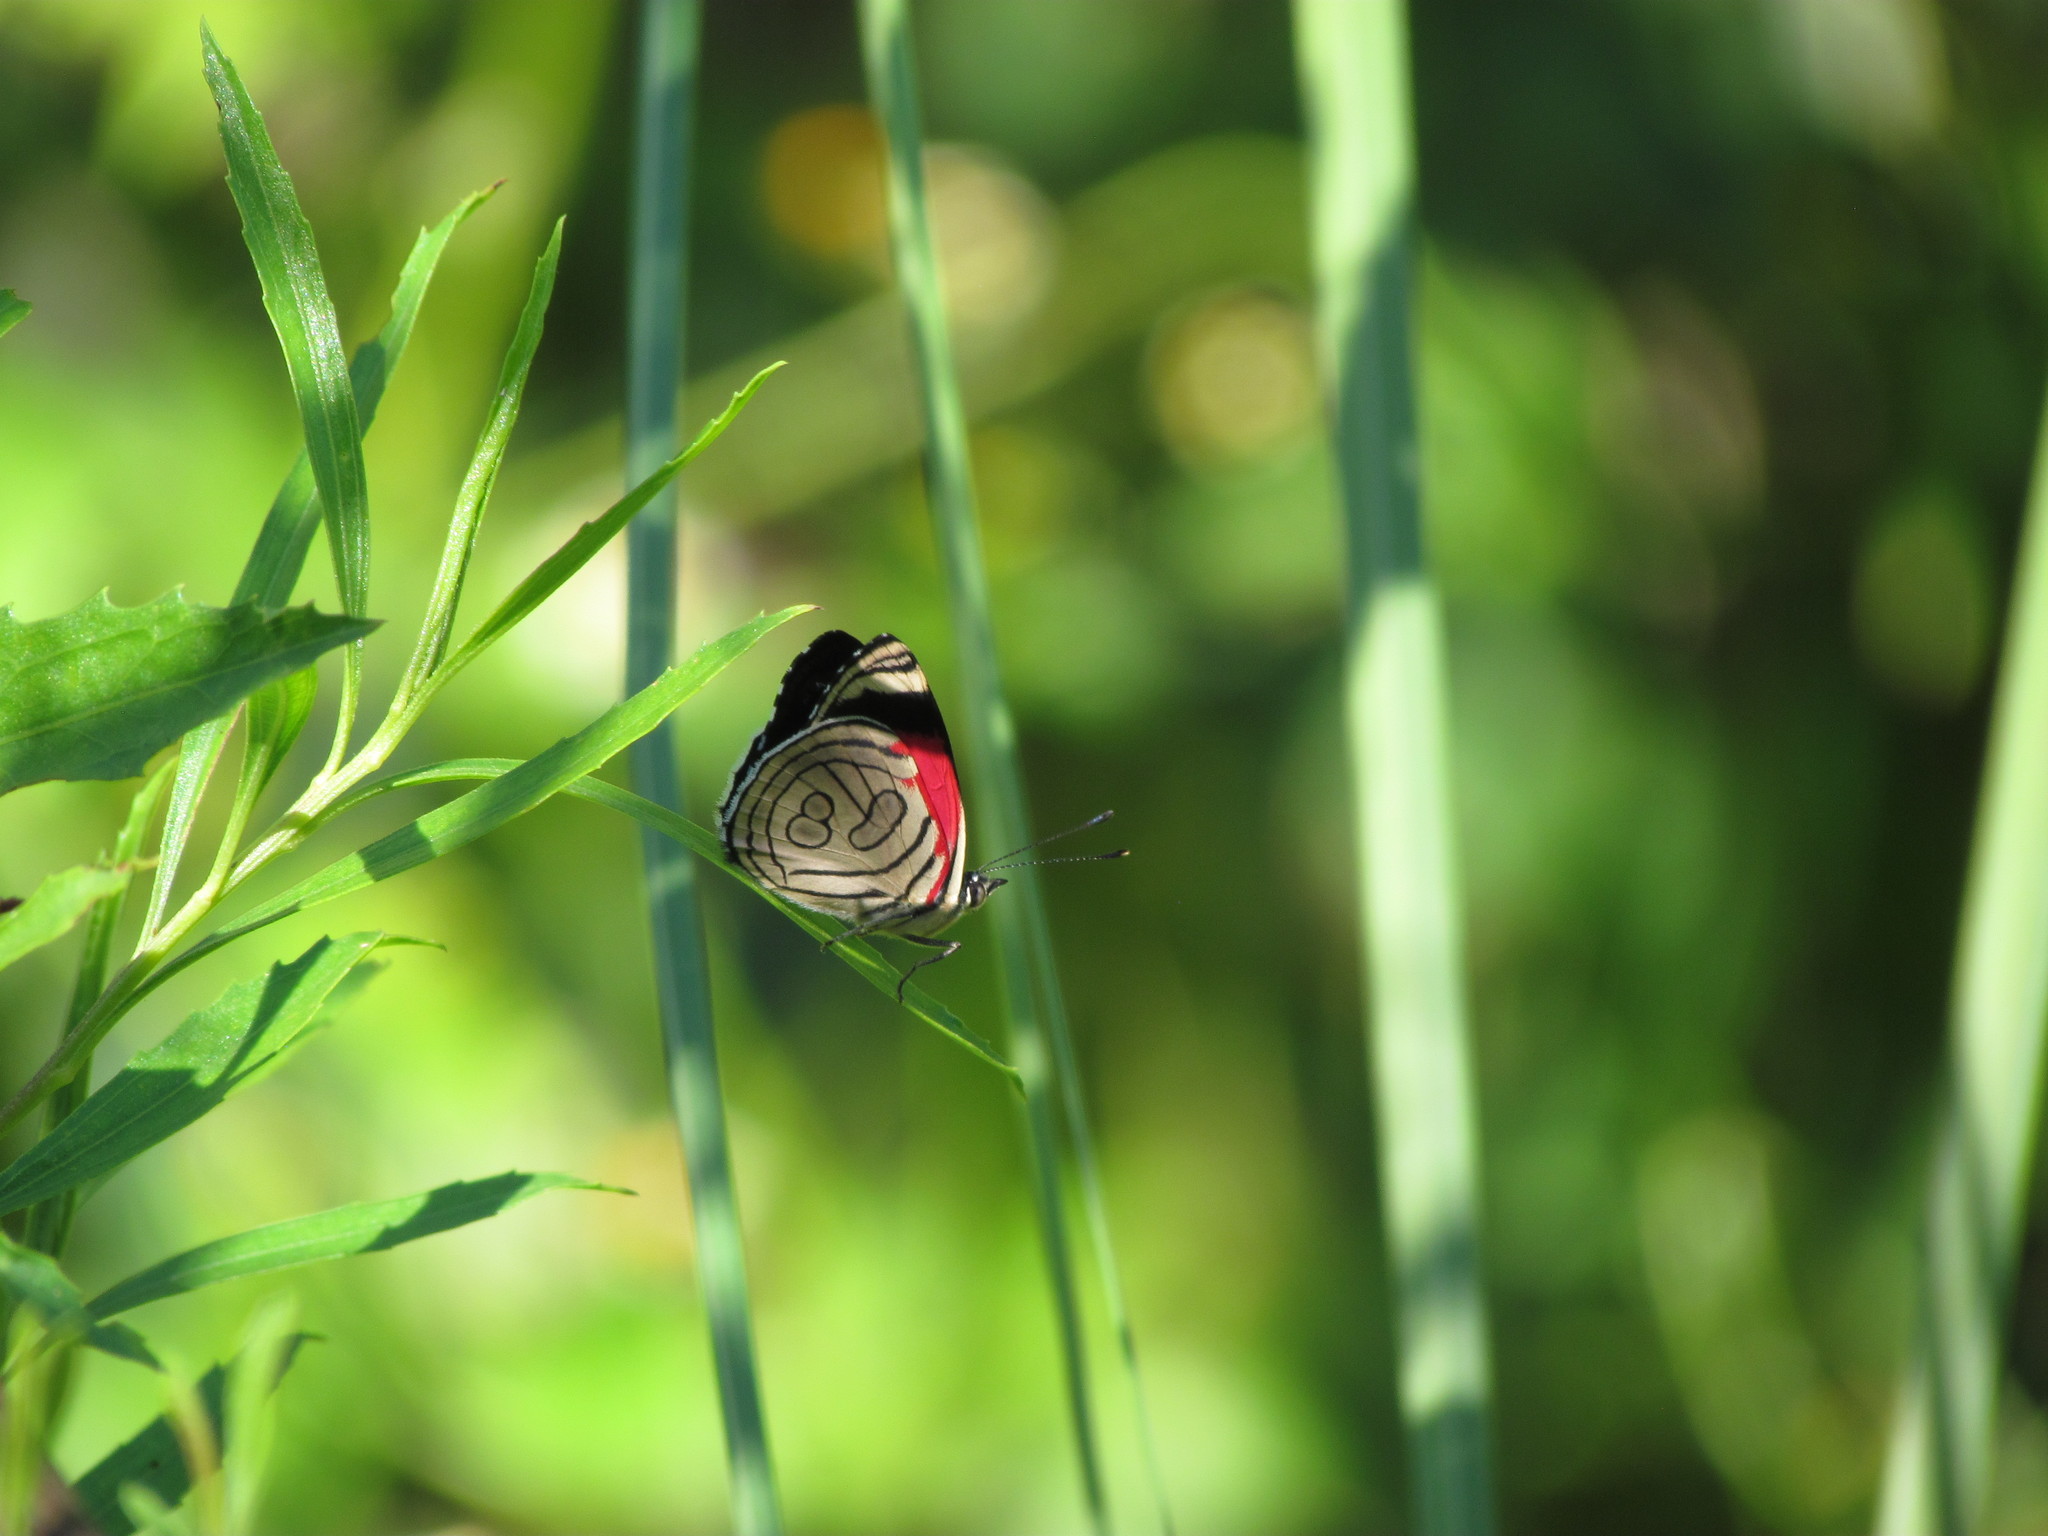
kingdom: Animalia
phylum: Arthropoda
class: Insecta
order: Lepidoptera
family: Nymphalidae
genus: Diaethria
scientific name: Diaethria candrena
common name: Number eighty
